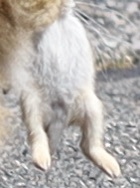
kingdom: Animalia
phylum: Chordata
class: Mammalia
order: Lagomorpha
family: Leporidae
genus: Sylvilagus
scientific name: Sylvilagus floridanus
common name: Eastern cottontail
